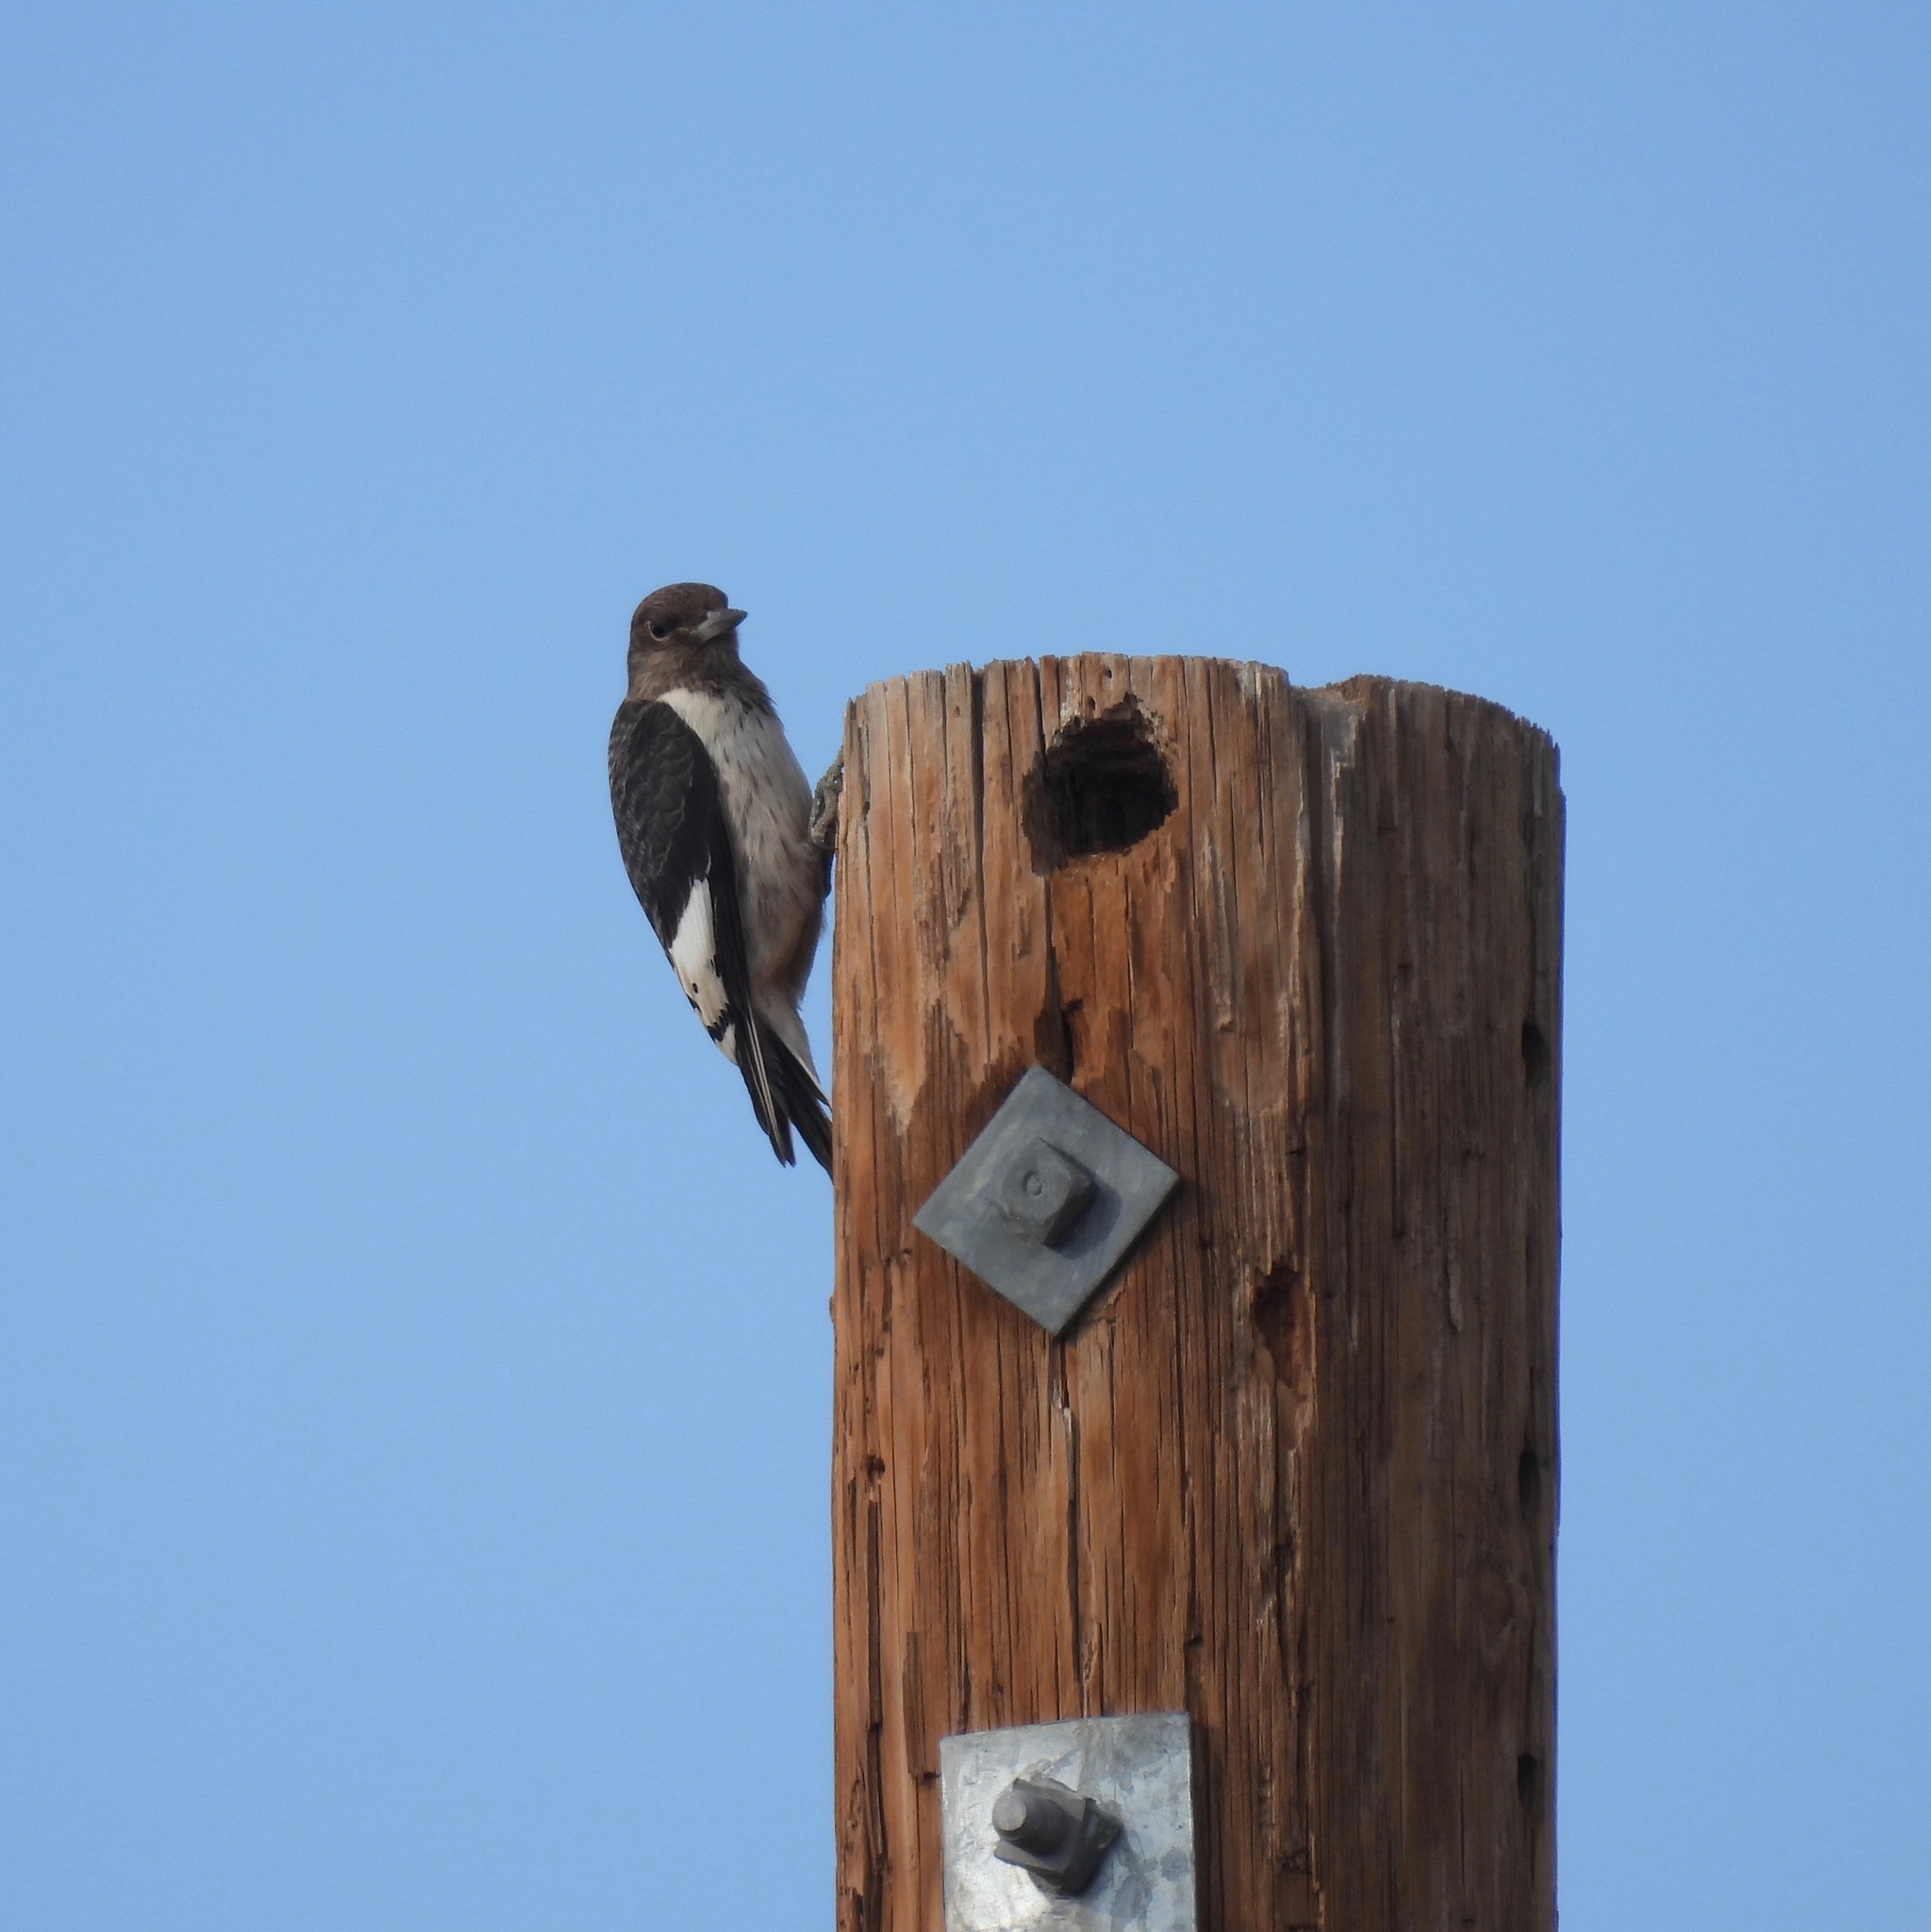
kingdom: Animalia
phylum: Chordata
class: Aves
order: Piciformes
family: Picidae
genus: Melanerpes
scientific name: Melanerpes erythrocephalus
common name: Red-headed woodpecker
